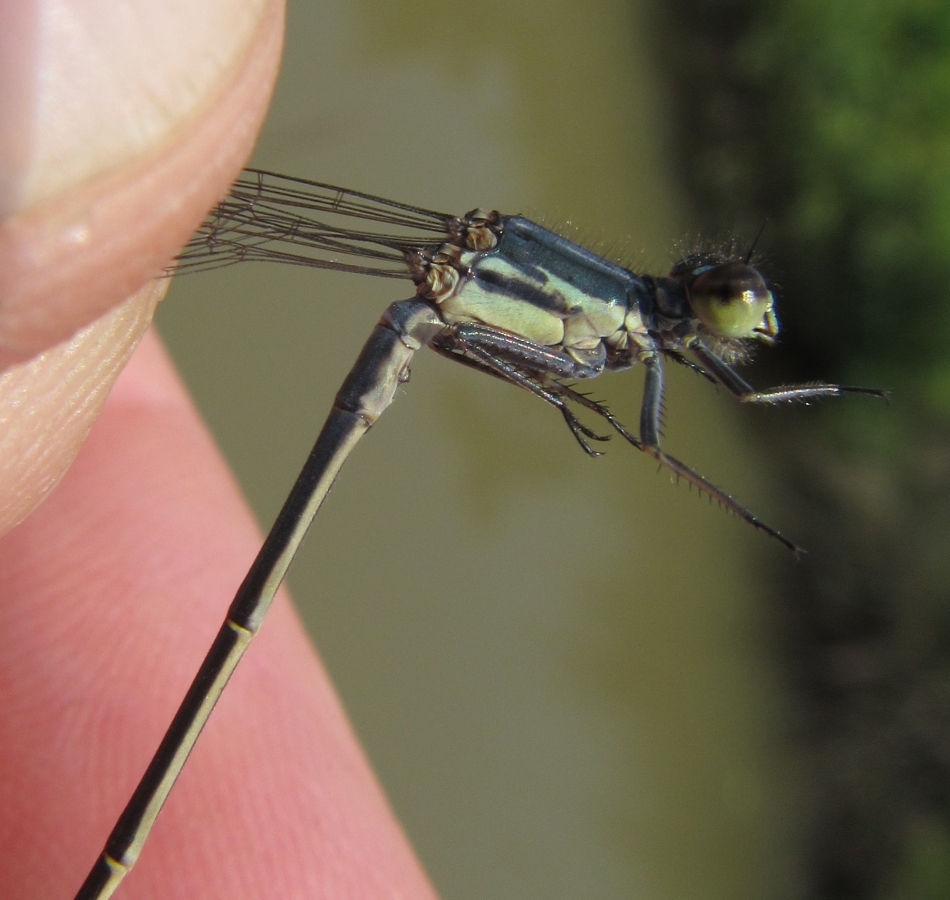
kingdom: Animalia
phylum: Arthropoda
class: Insecta
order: Odonata
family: Coenagrionidae
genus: Pseudagrion
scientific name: Pseudagrion spernatum
